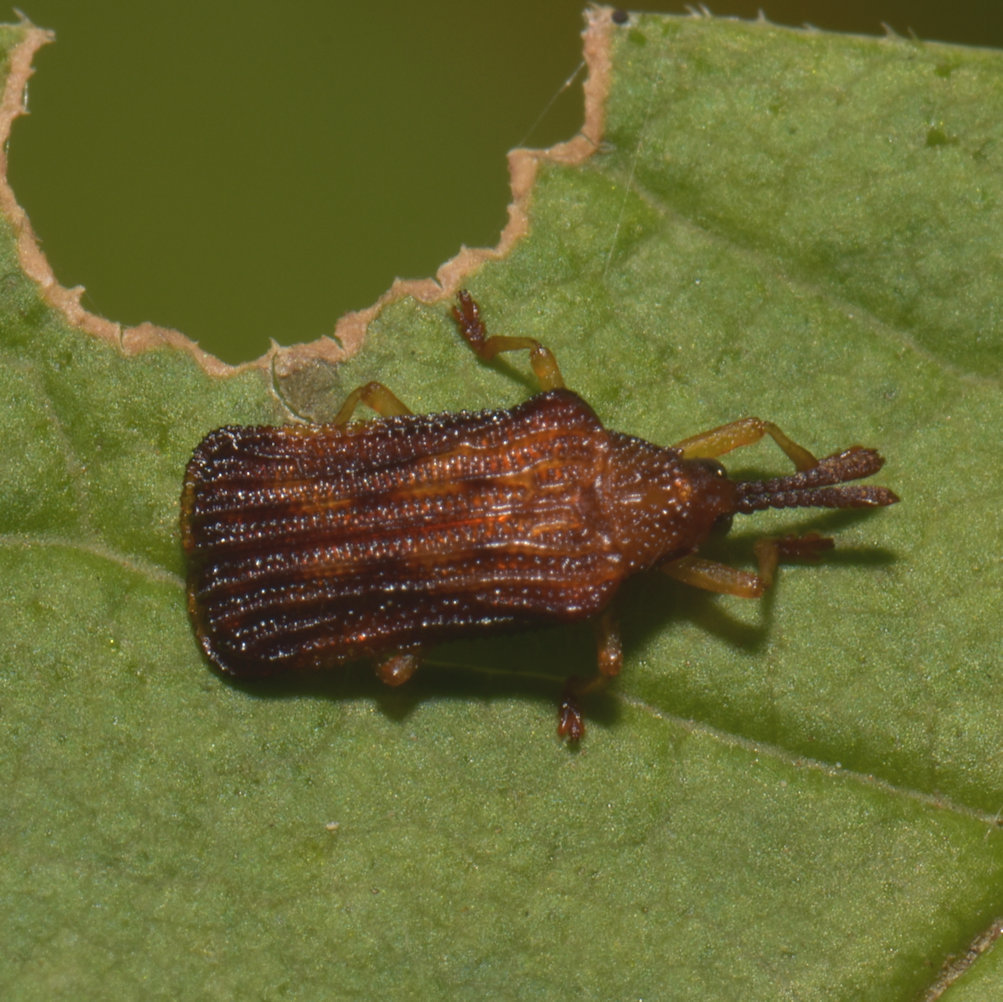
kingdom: Animalia
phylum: Arthropoda
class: Insecta
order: Coleoptera
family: Chrysomelidae
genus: Baliosus
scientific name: Baliosus nervosus
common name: Basswood leaf miner
